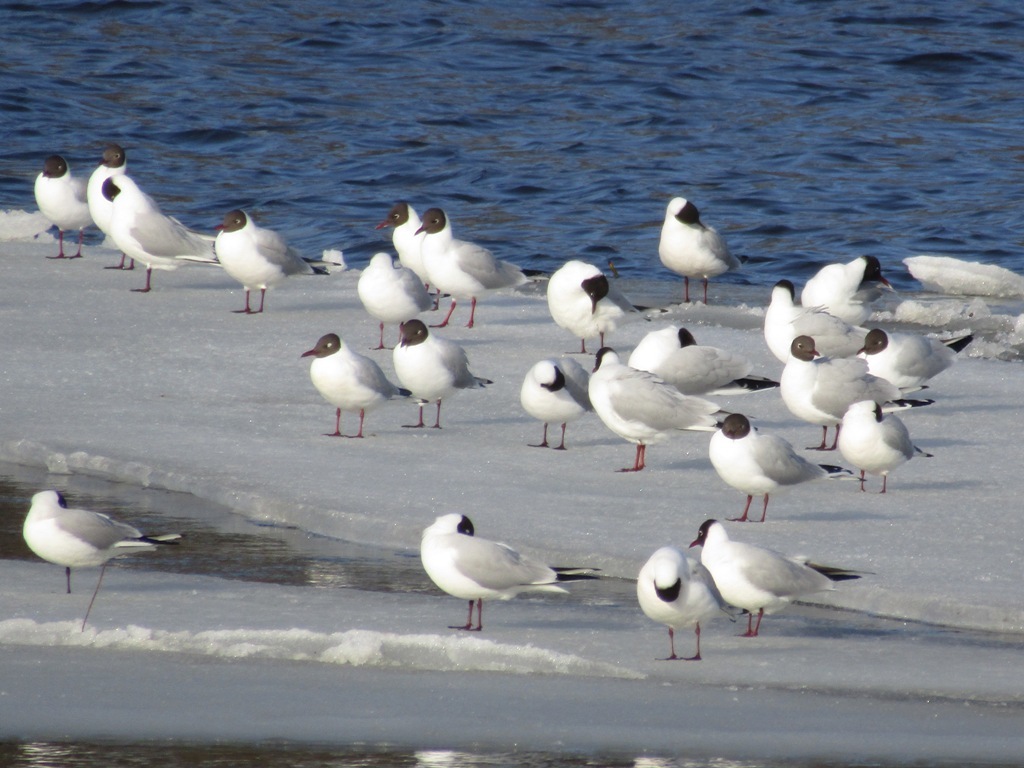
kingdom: Animalia
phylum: Chordata
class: Aves
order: Charadriiformes
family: Laridae
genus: Chroicocephalus
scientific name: Chroicocephalus ridibundus
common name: Black-headed gull
